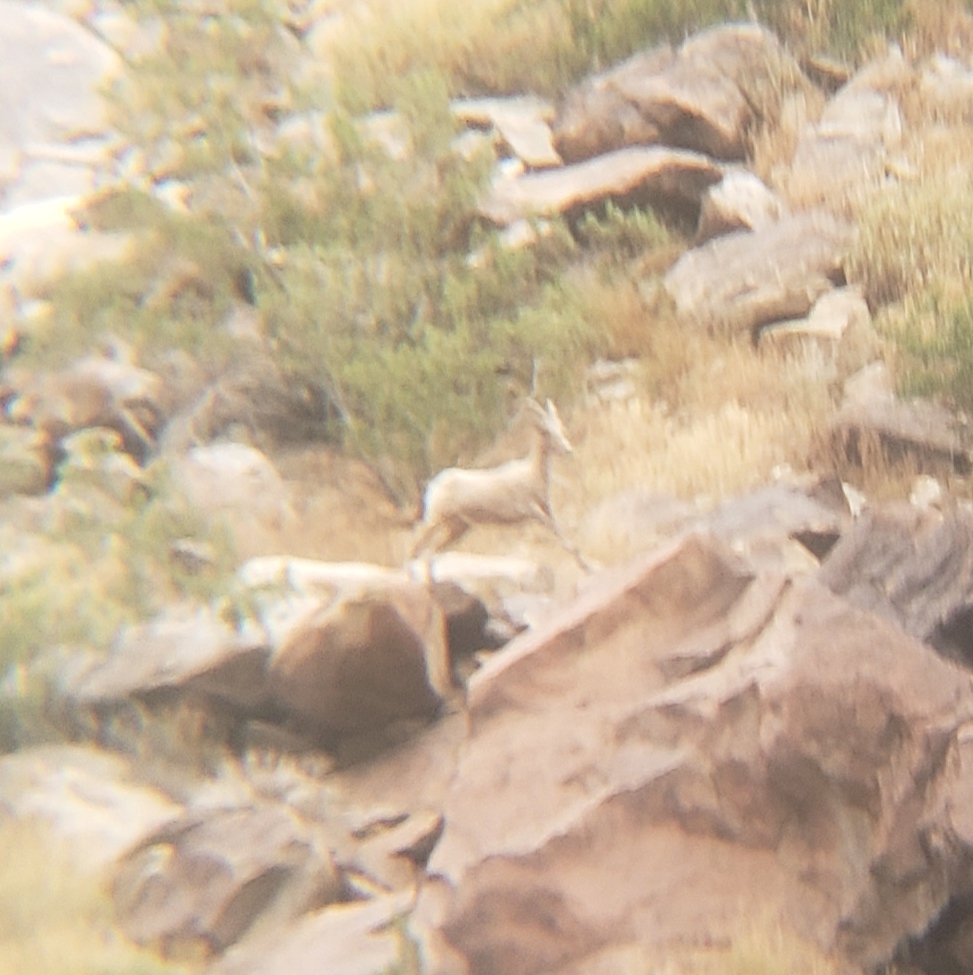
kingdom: Animalia
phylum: Chordata
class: Mammalia
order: Artiodactyla
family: Bovidae
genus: Ovis
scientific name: Ovis canadensis
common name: Bighorn sheep
